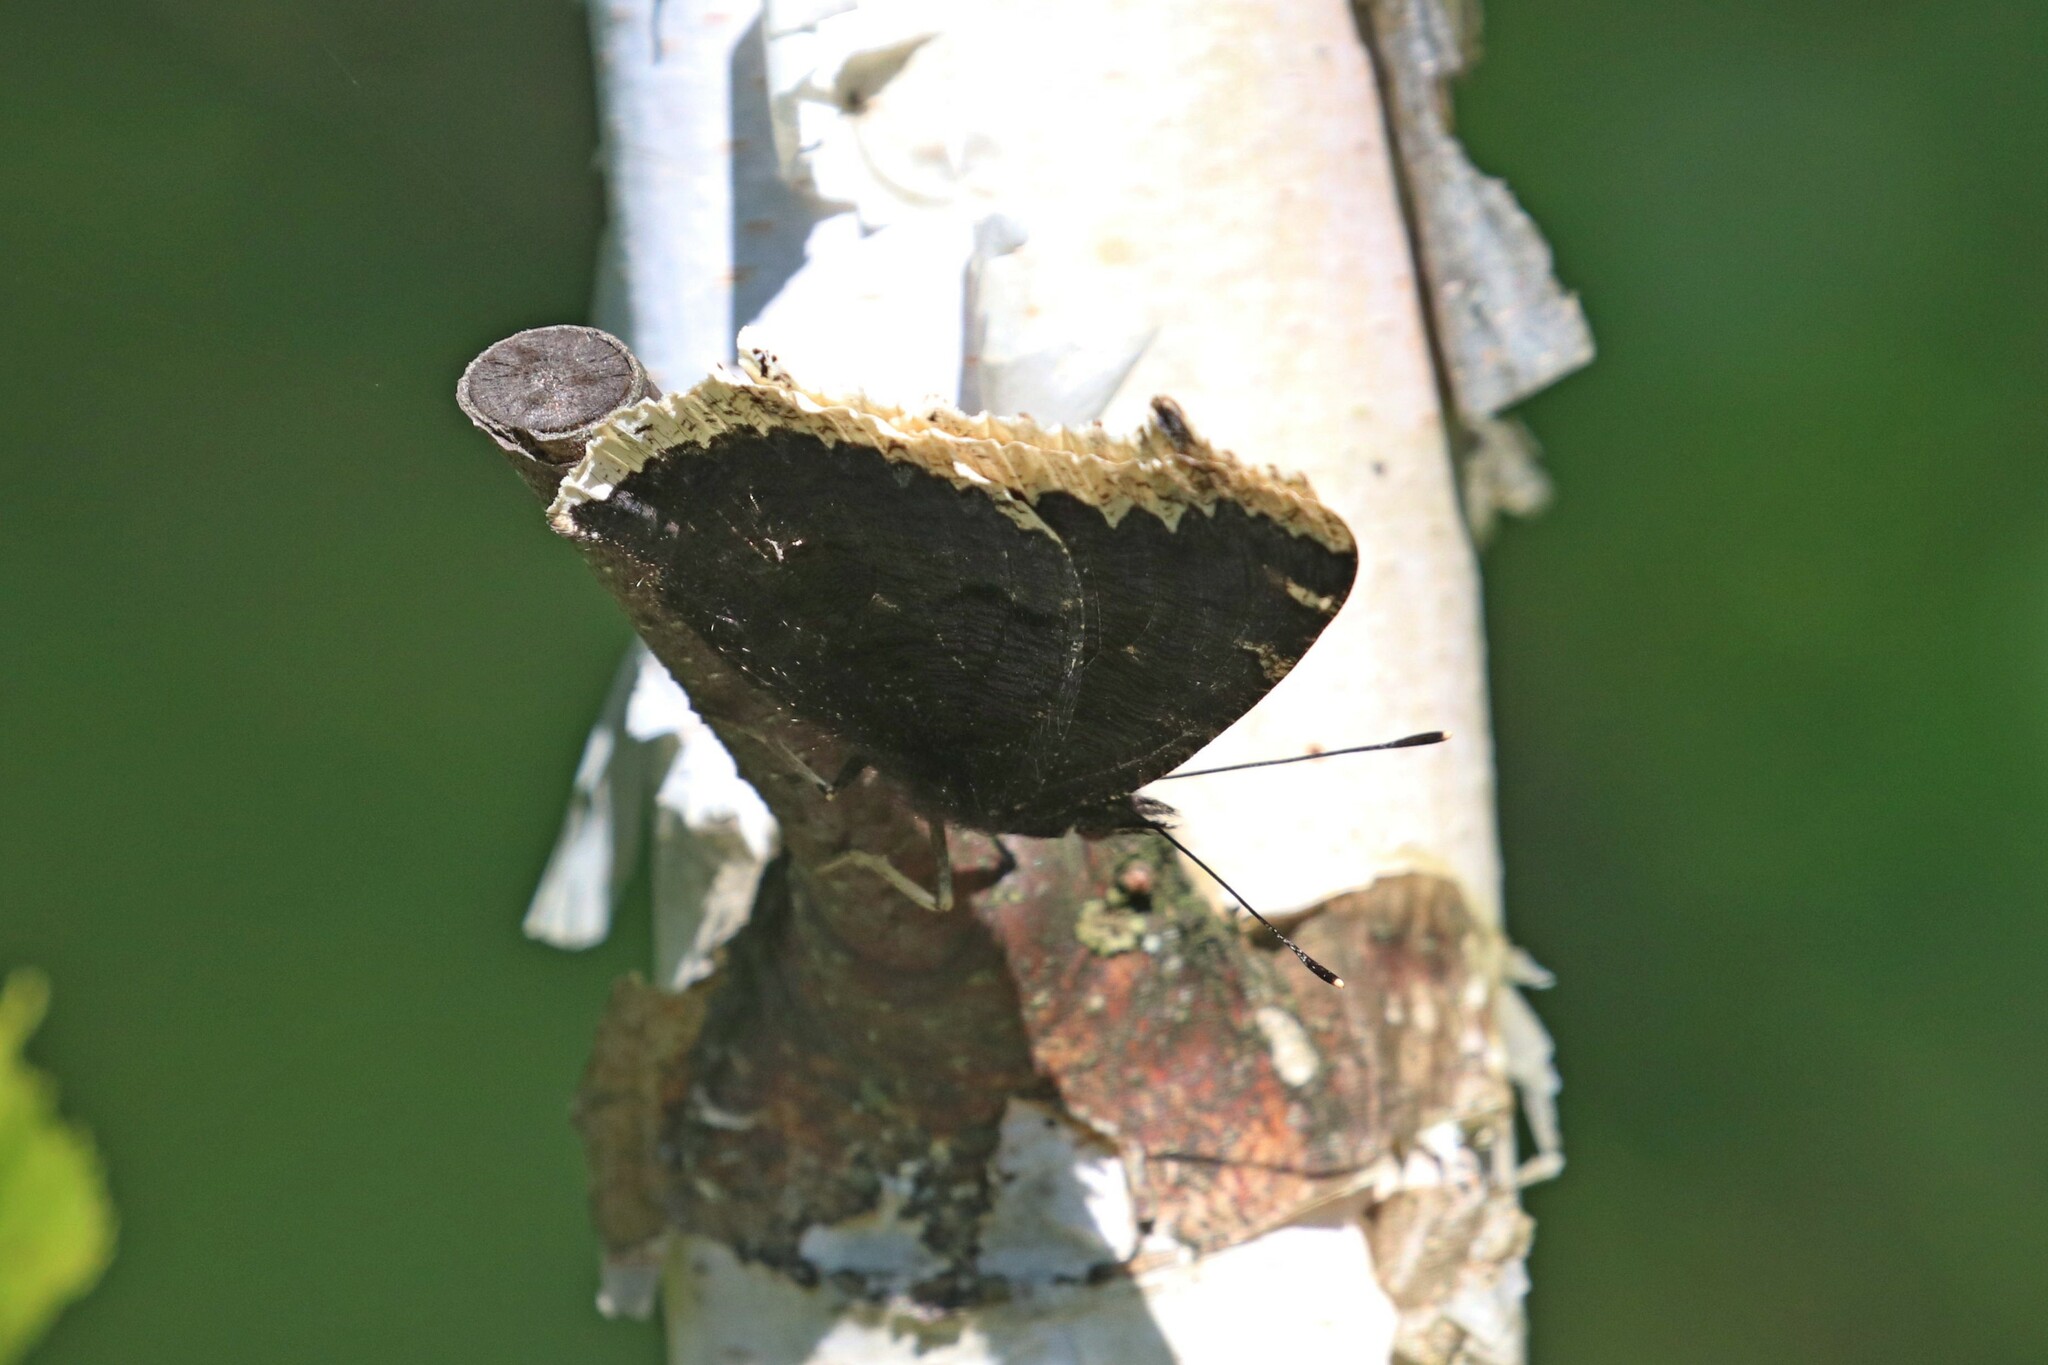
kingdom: Animalia
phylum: Arthropoda
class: Insecta
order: Lepidoptera
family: Nymphalidae
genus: Nymphalis
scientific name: Nymphalis antiopa
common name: Camberwell beauty
